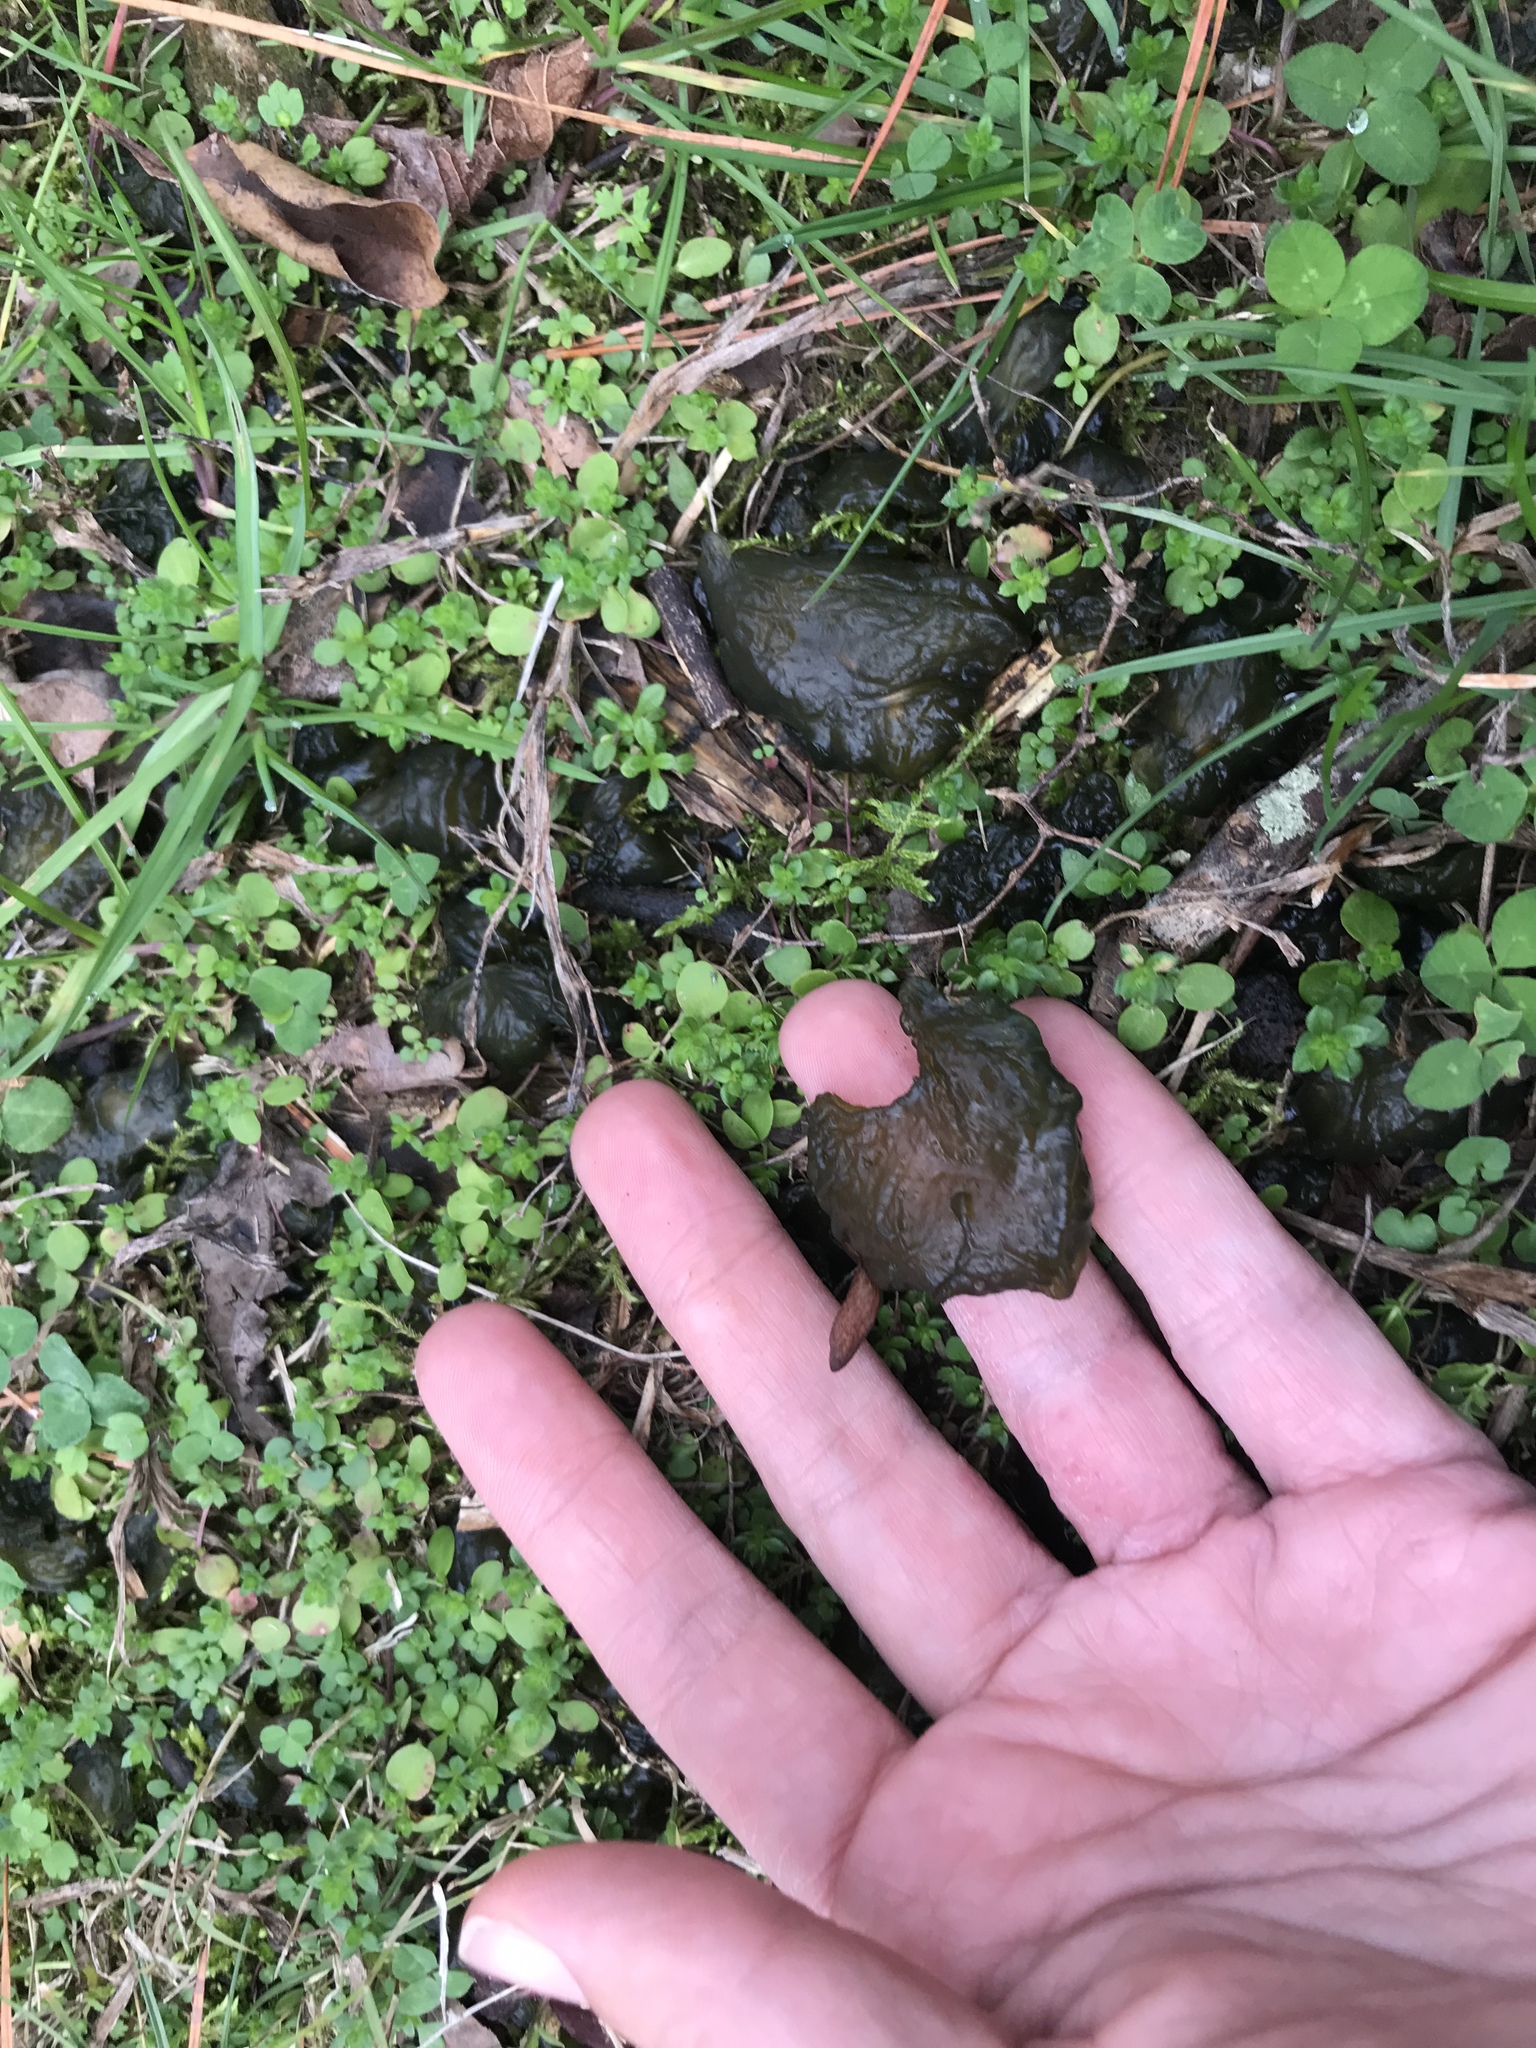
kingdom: Bacteria
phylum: Cyanobacteria
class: Cyanobacteriia
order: Cyanobacteriales
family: Nostocaceae
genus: Nostoc
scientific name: Nostoc commune
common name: Star jelly
